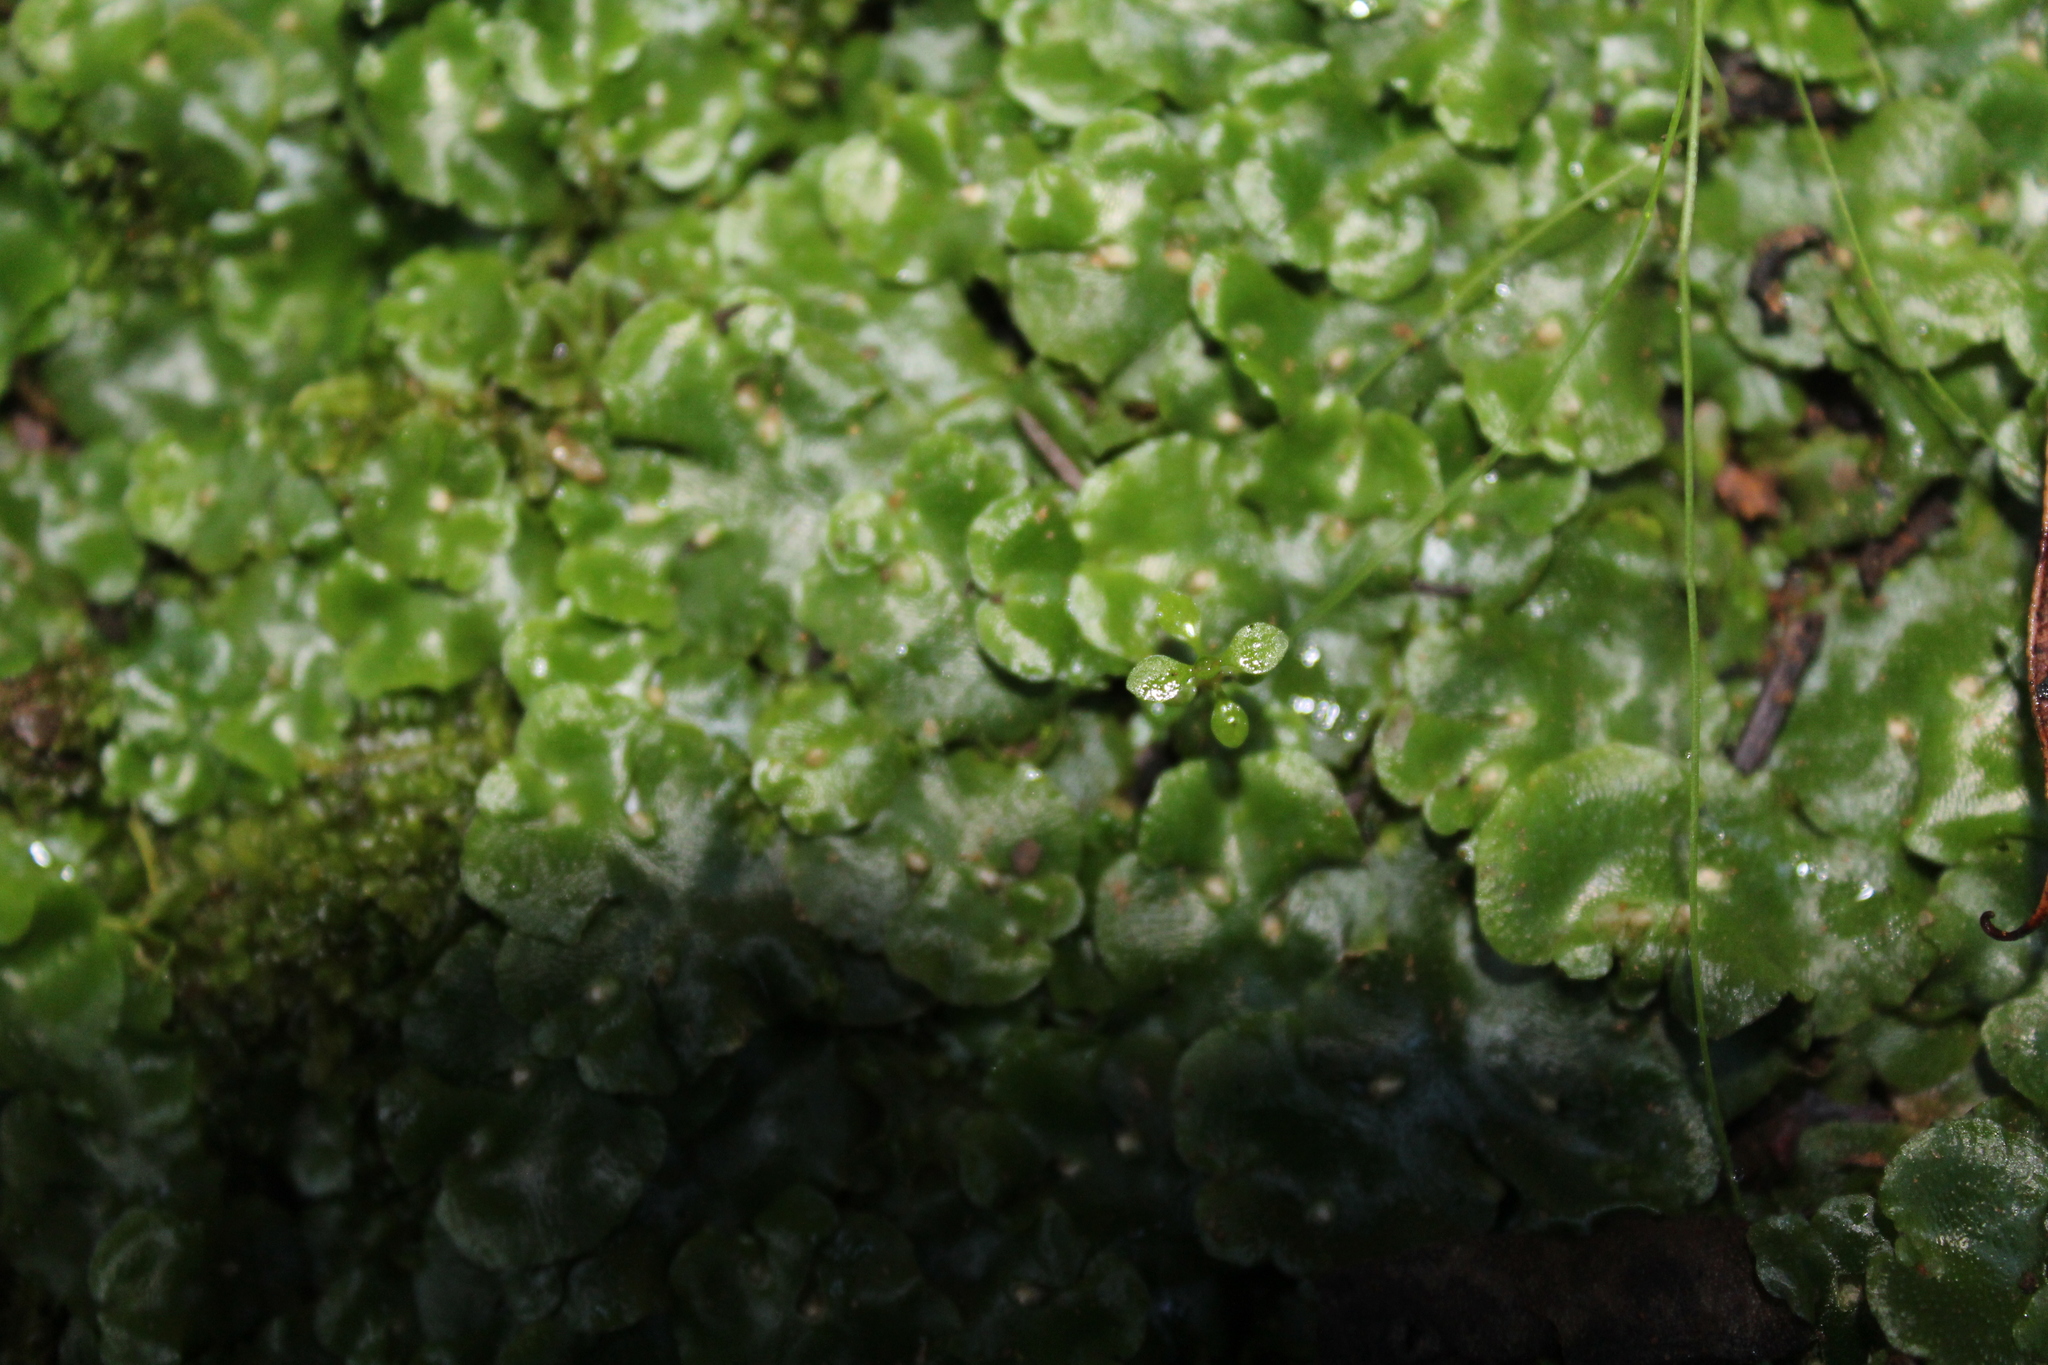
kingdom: Plantae
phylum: Marchantiophyta
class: Marchantiopsida
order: Lunulariales
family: Lunulariaceae
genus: Lunularia
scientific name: Lunularia cruciata
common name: Crescent-cup liverwort
